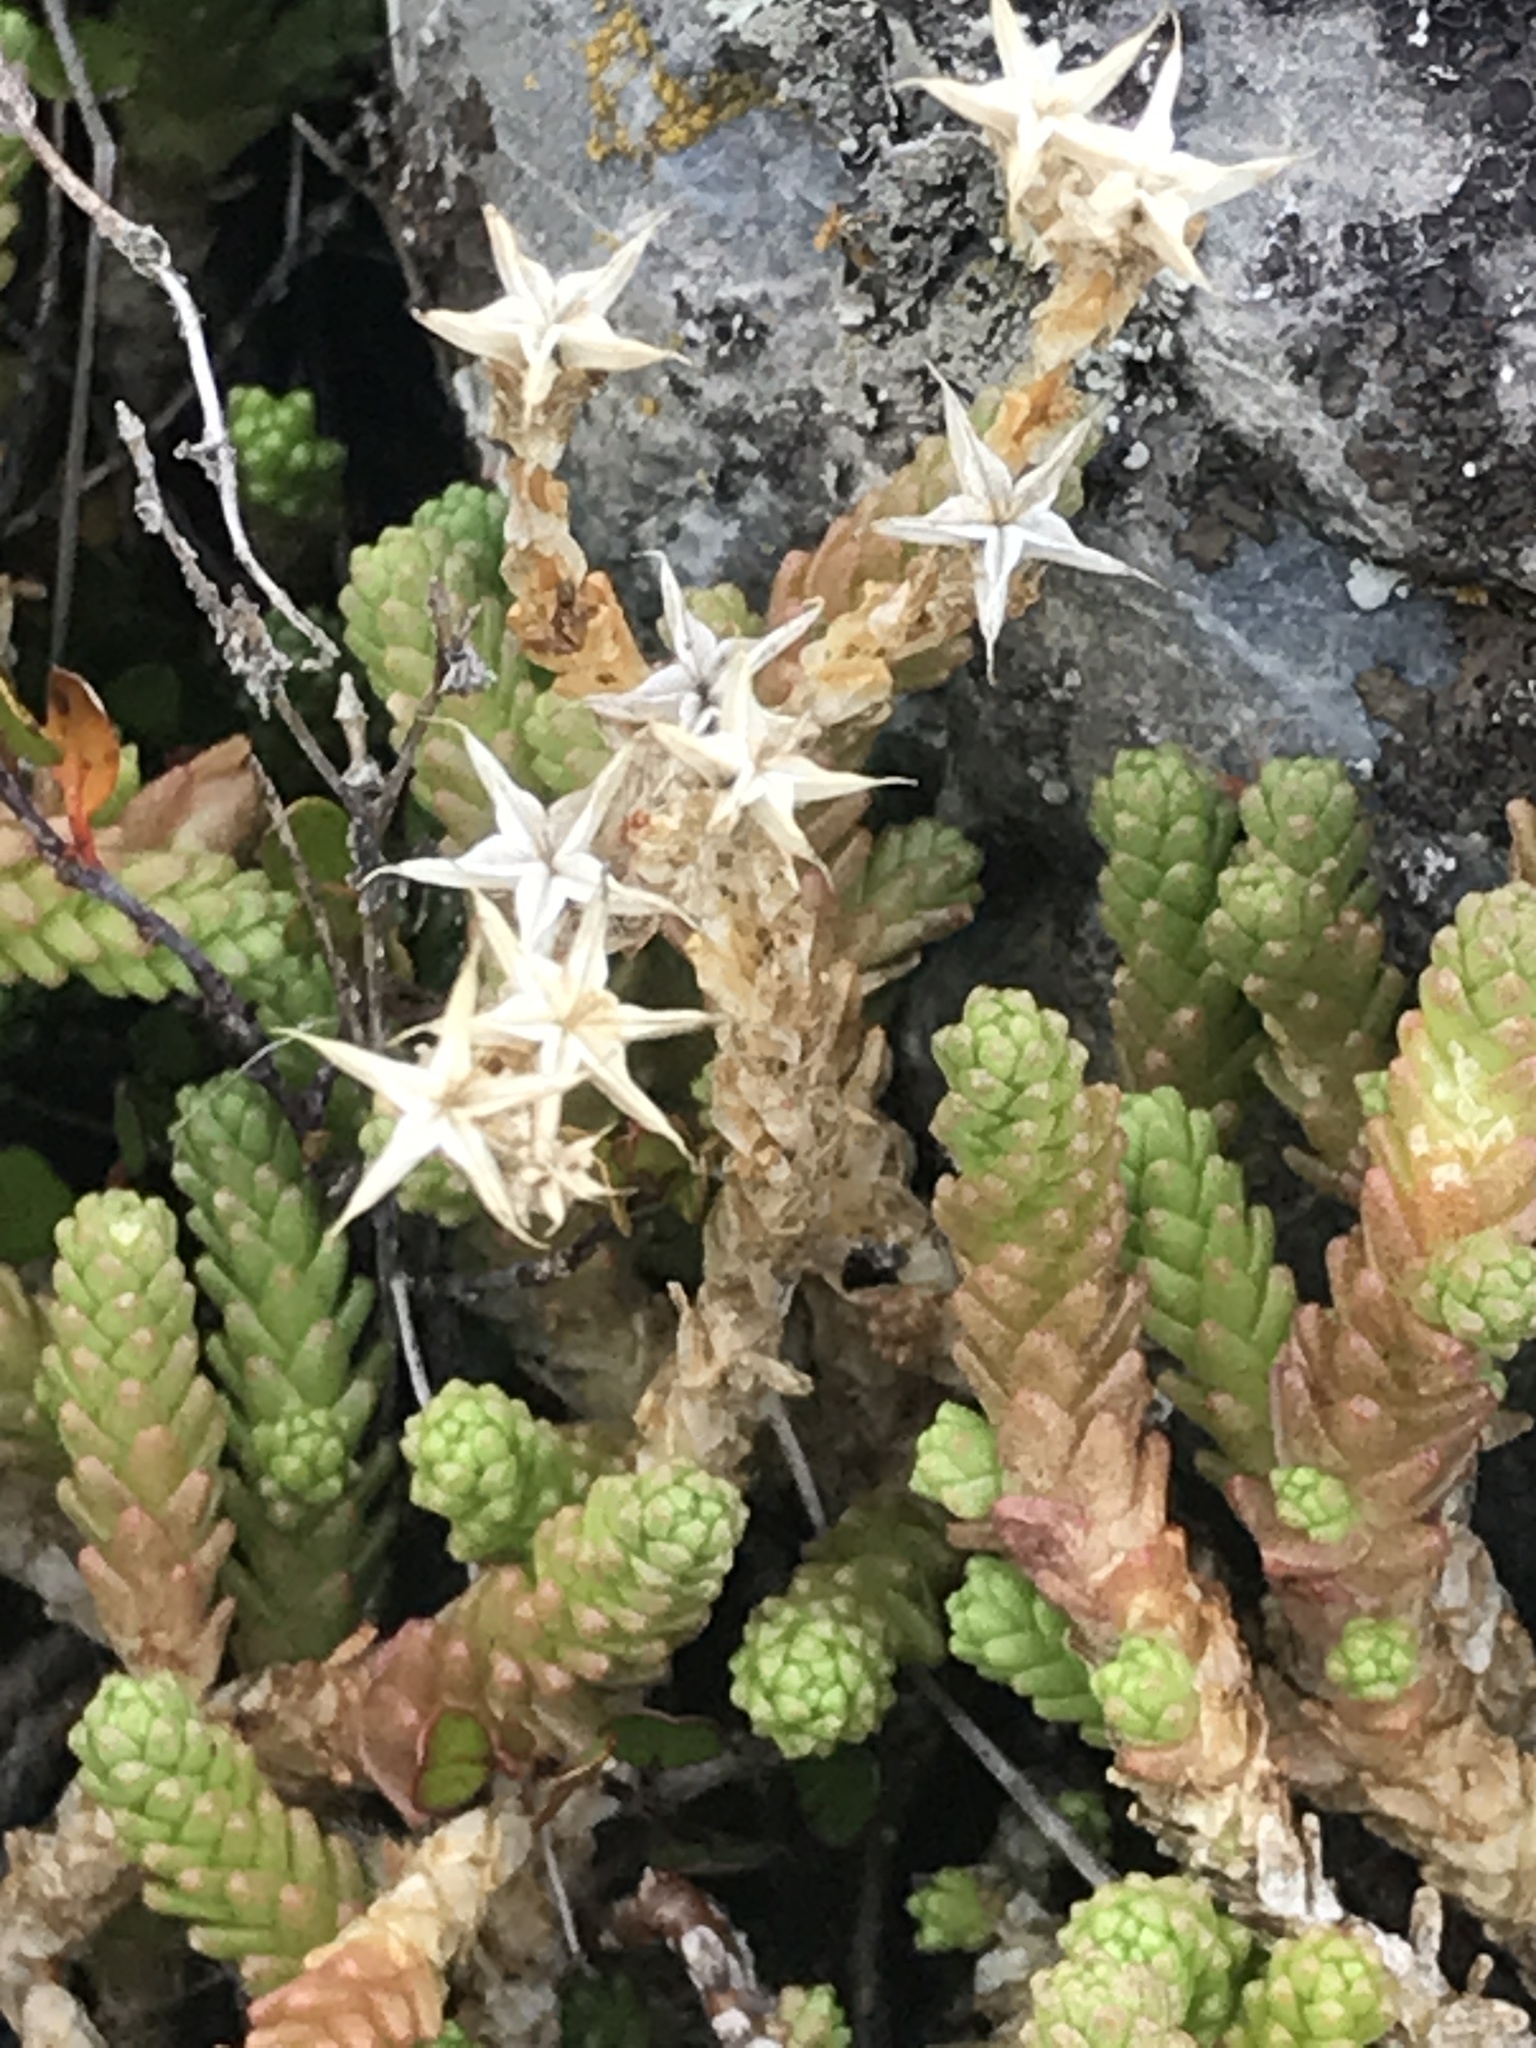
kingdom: Plantae
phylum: Tracheophyta
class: Magnoliopsida
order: Saxifragales
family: Crassulaceae
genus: Sedum
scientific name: Sedum acre
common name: Biting stonecrop
